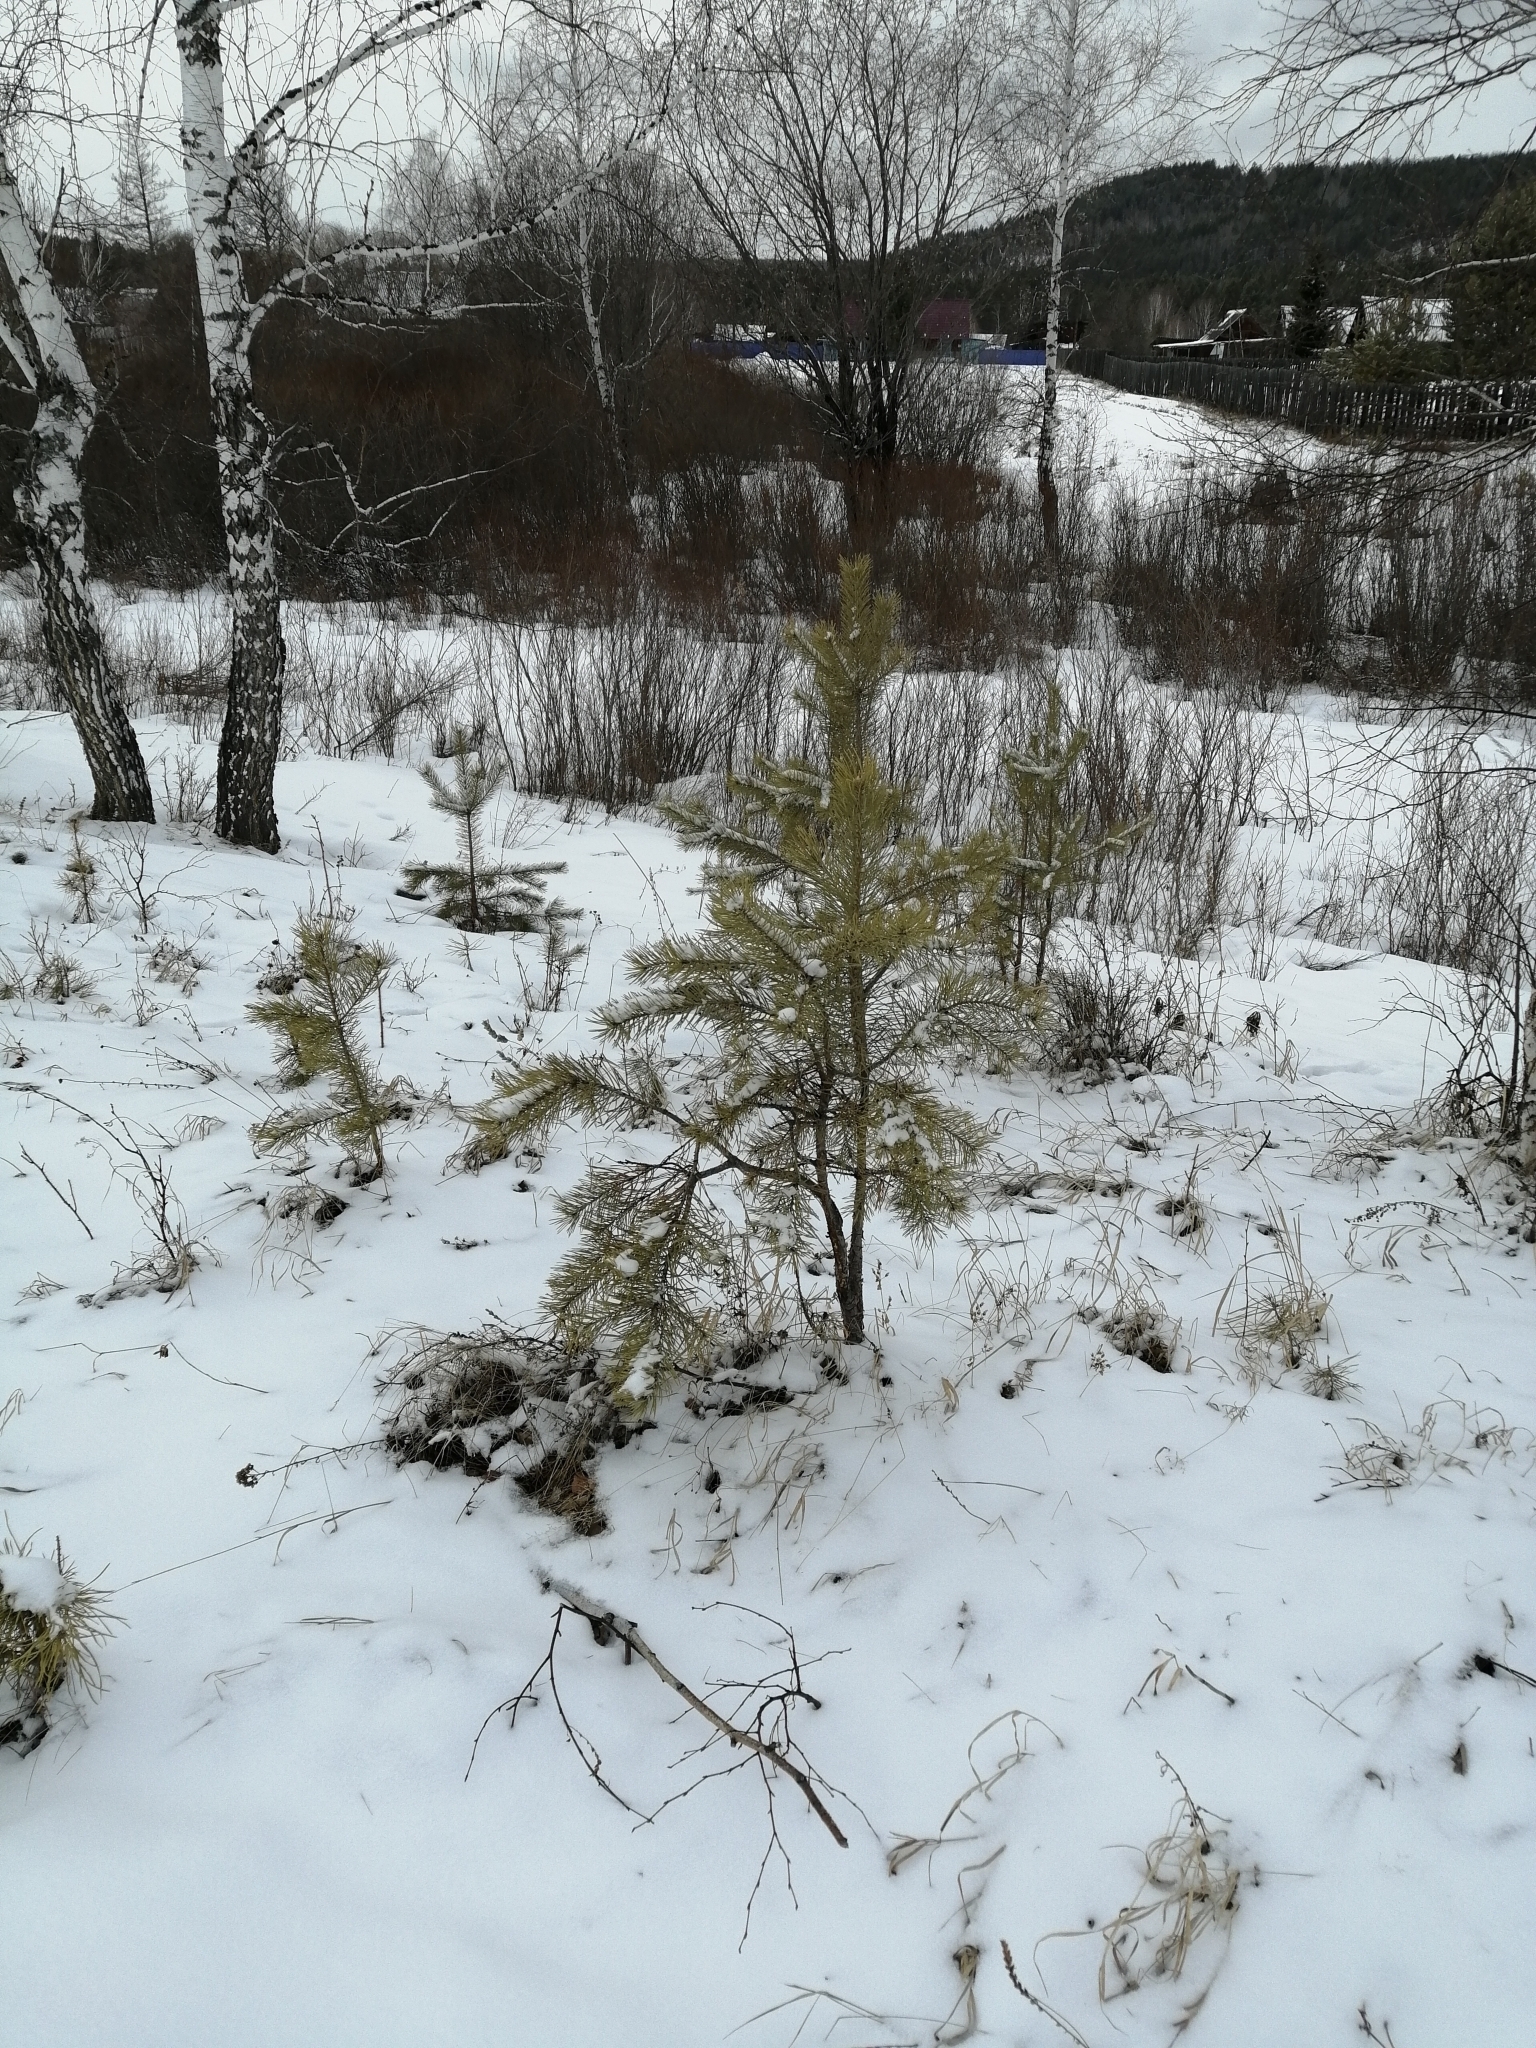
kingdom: Plantae
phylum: Tracheophyta
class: Pinopsida
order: Pinales
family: Pinaceae
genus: Pinus
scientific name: Pinus sylvestris
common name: Scots pine
